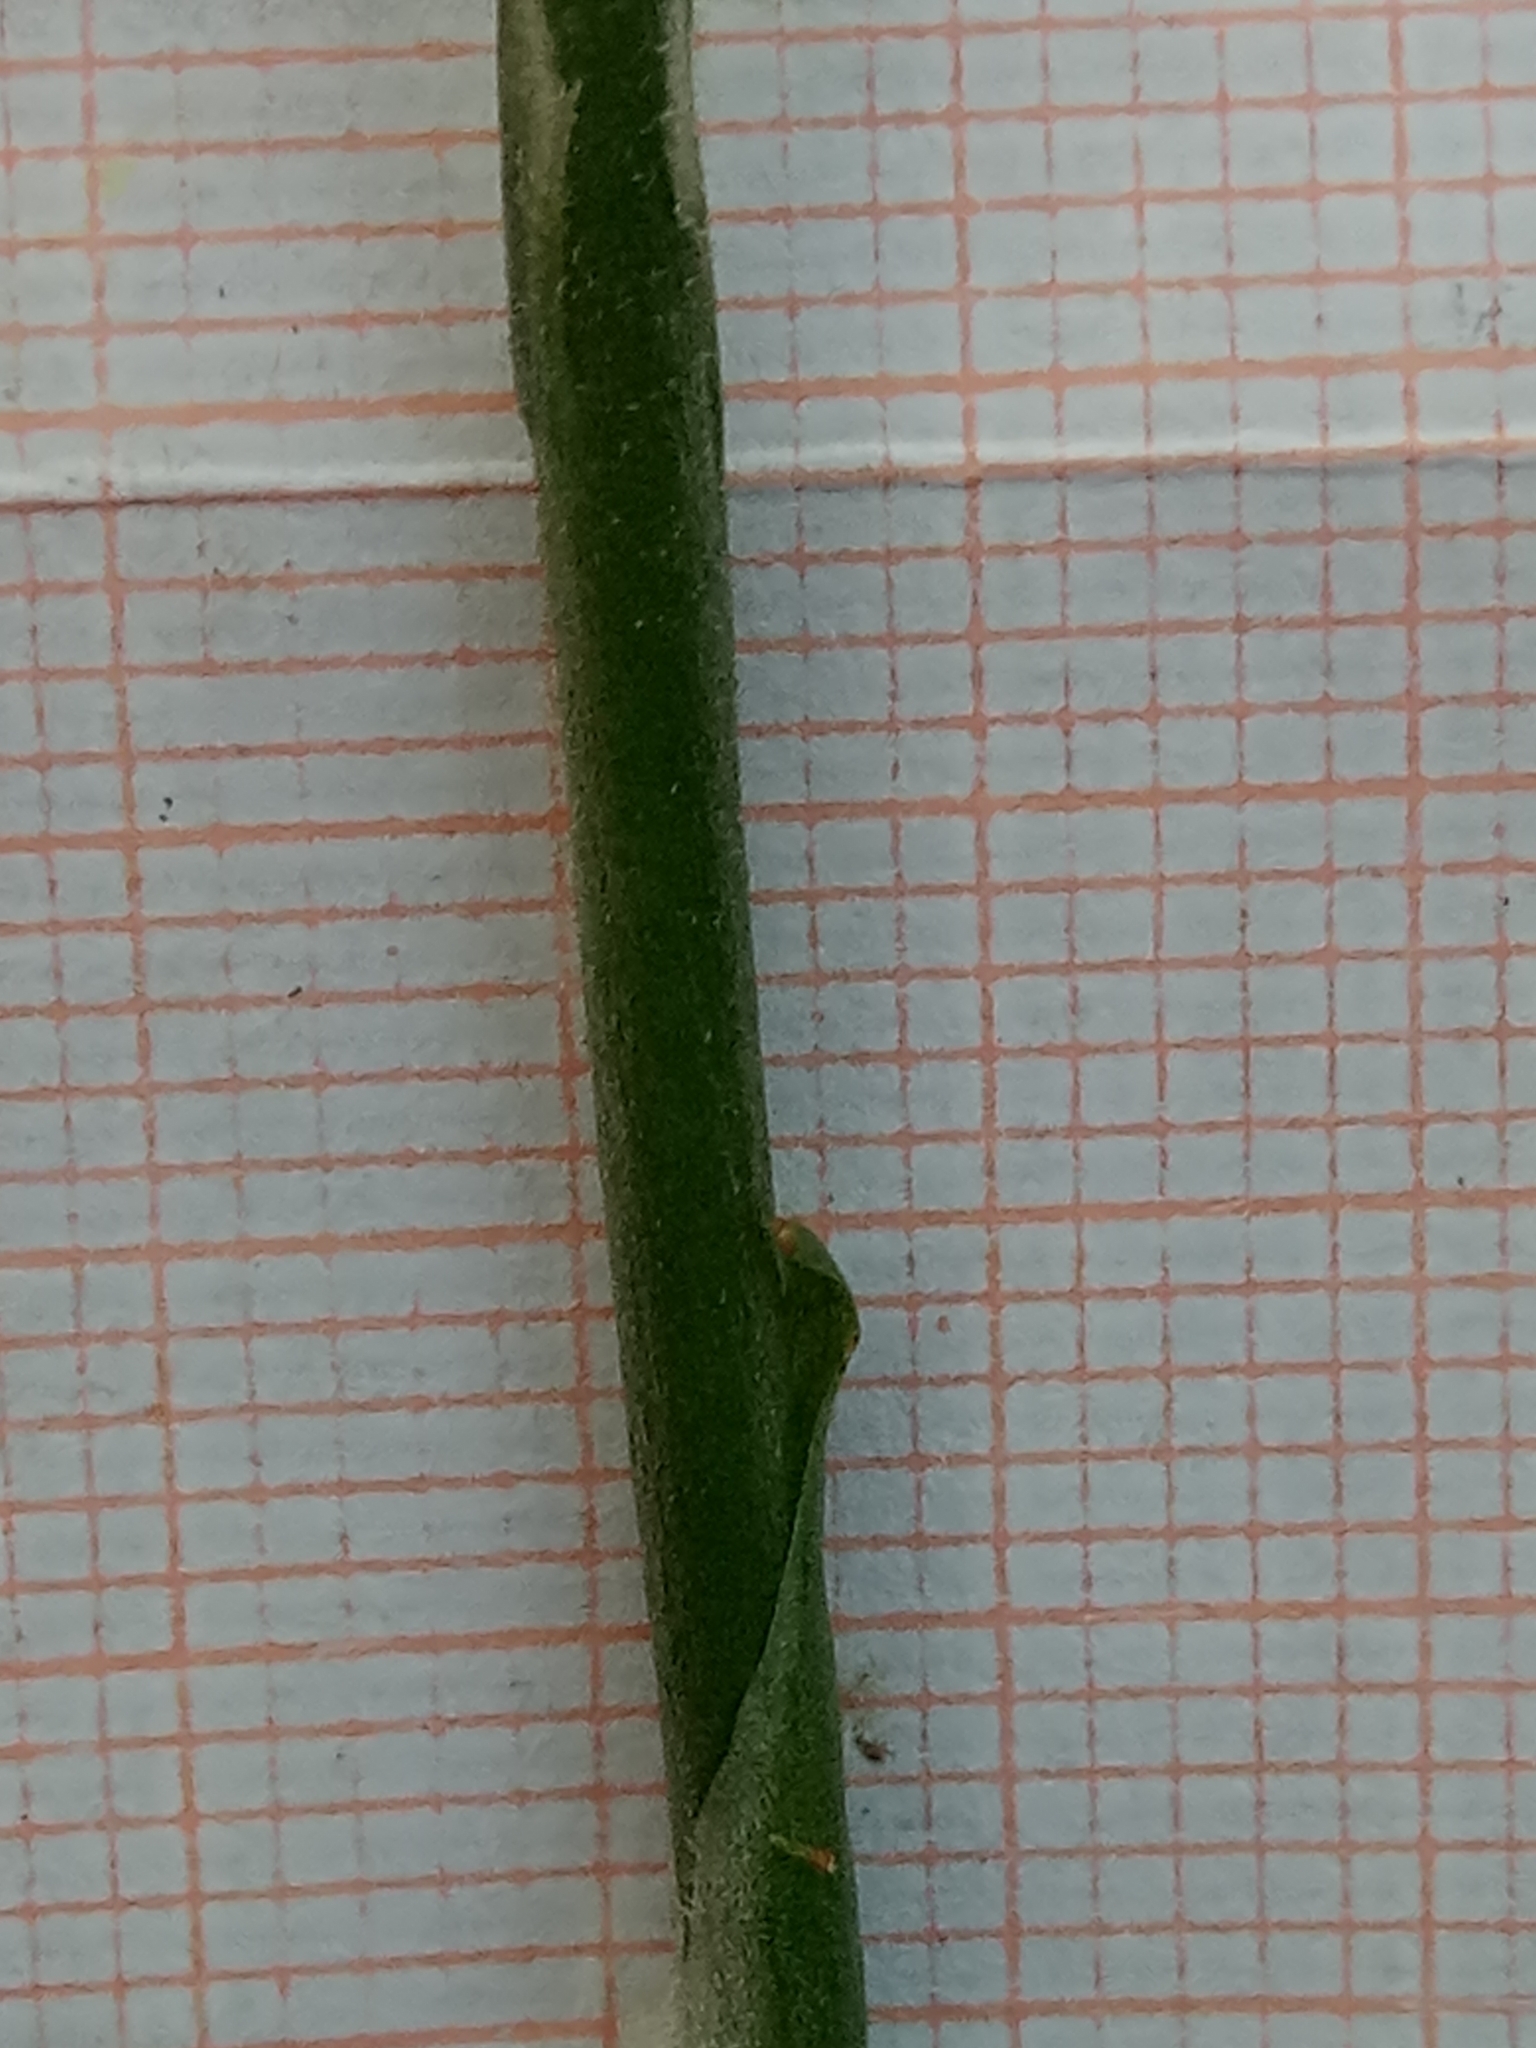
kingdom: Plantae
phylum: Tracheophyta
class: Liliopsida
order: Asparagales
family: Orchidaceae
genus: Spiranthes
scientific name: Spiranthes spiralis
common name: Autumn lady's-tresses
